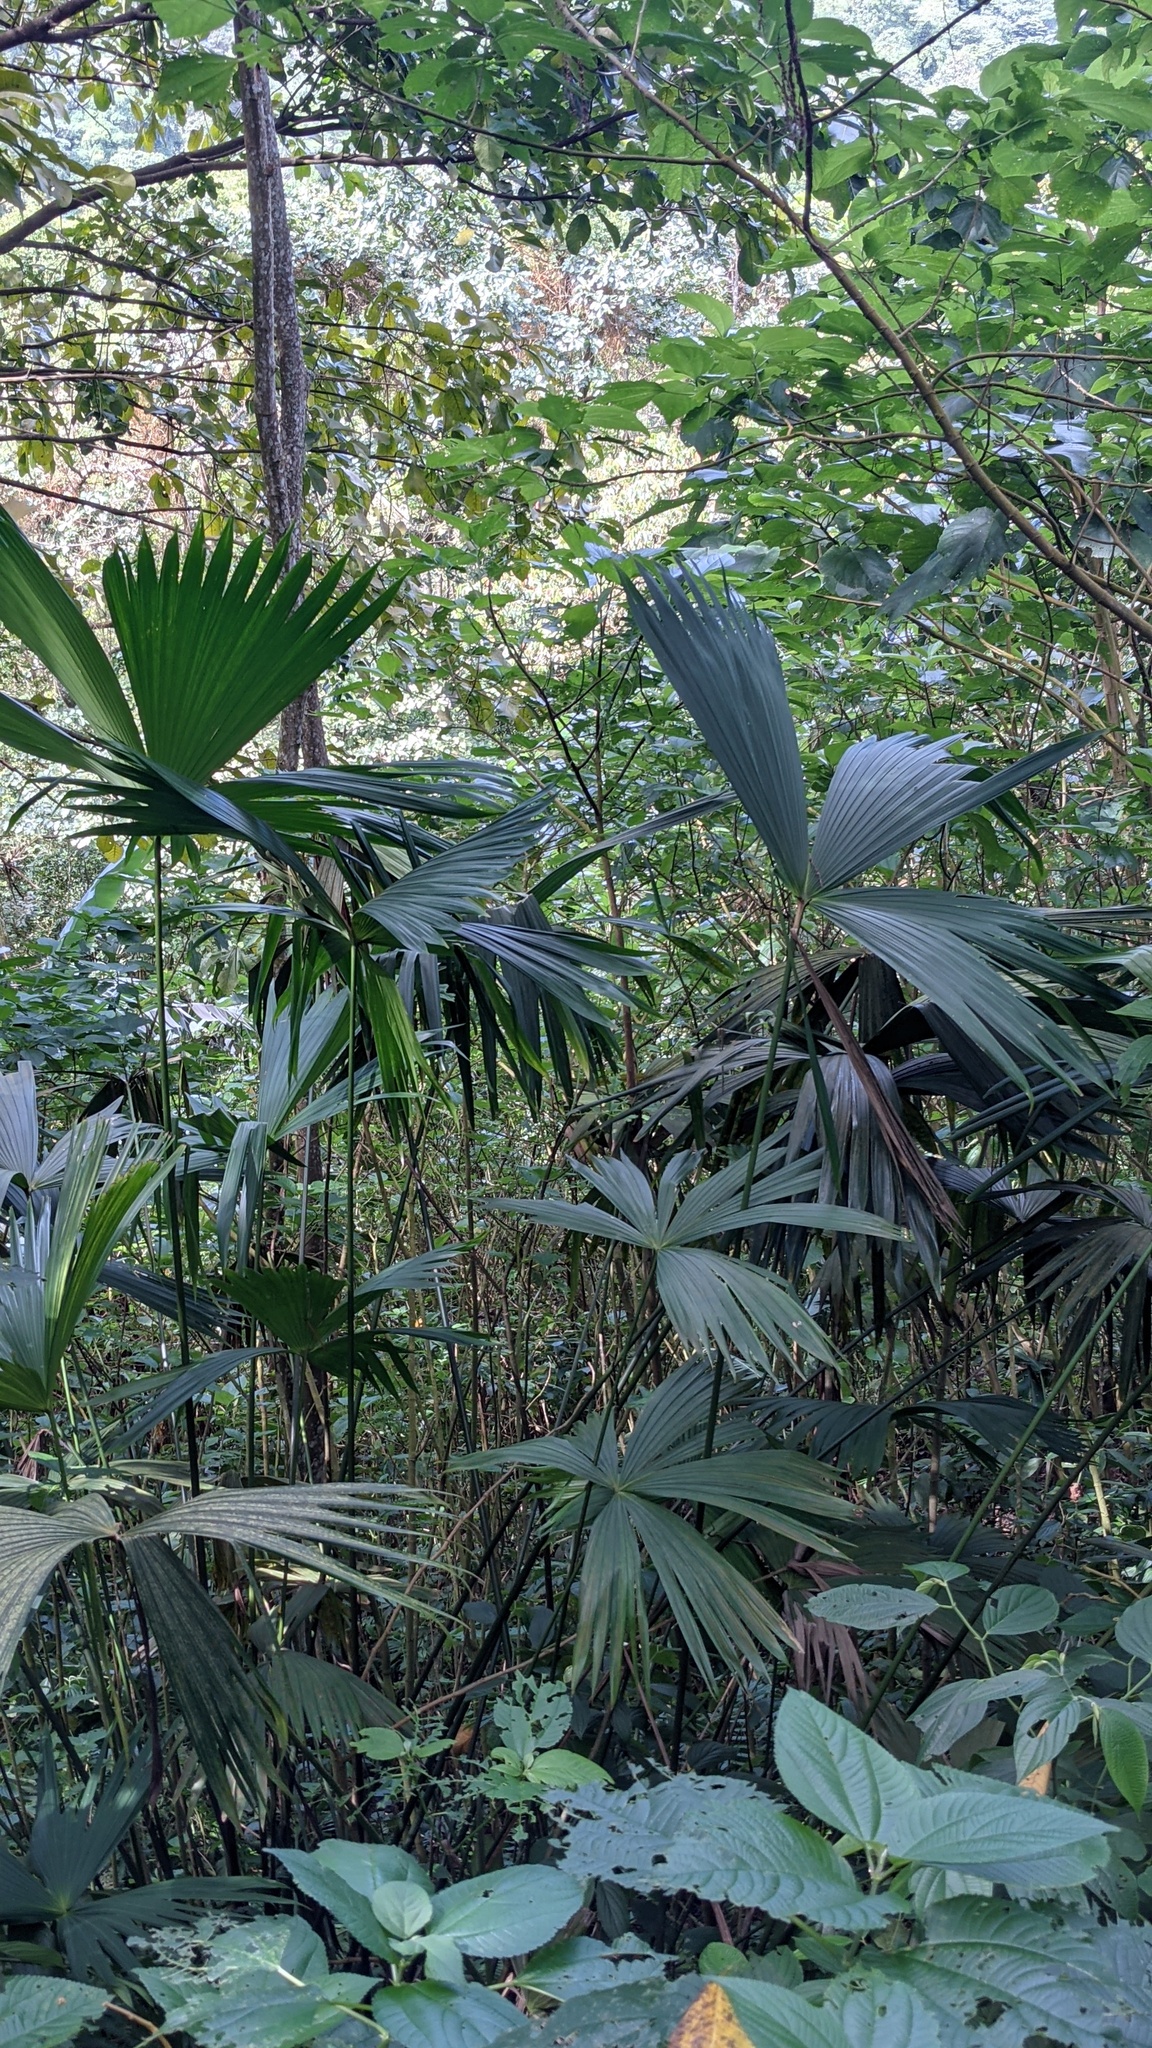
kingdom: Plantae
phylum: Tracheophyta
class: Liliopsida
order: Pandanales
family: Cyclanthaceae
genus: Carludovica
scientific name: Carludovica palmata
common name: Panama hat plant
